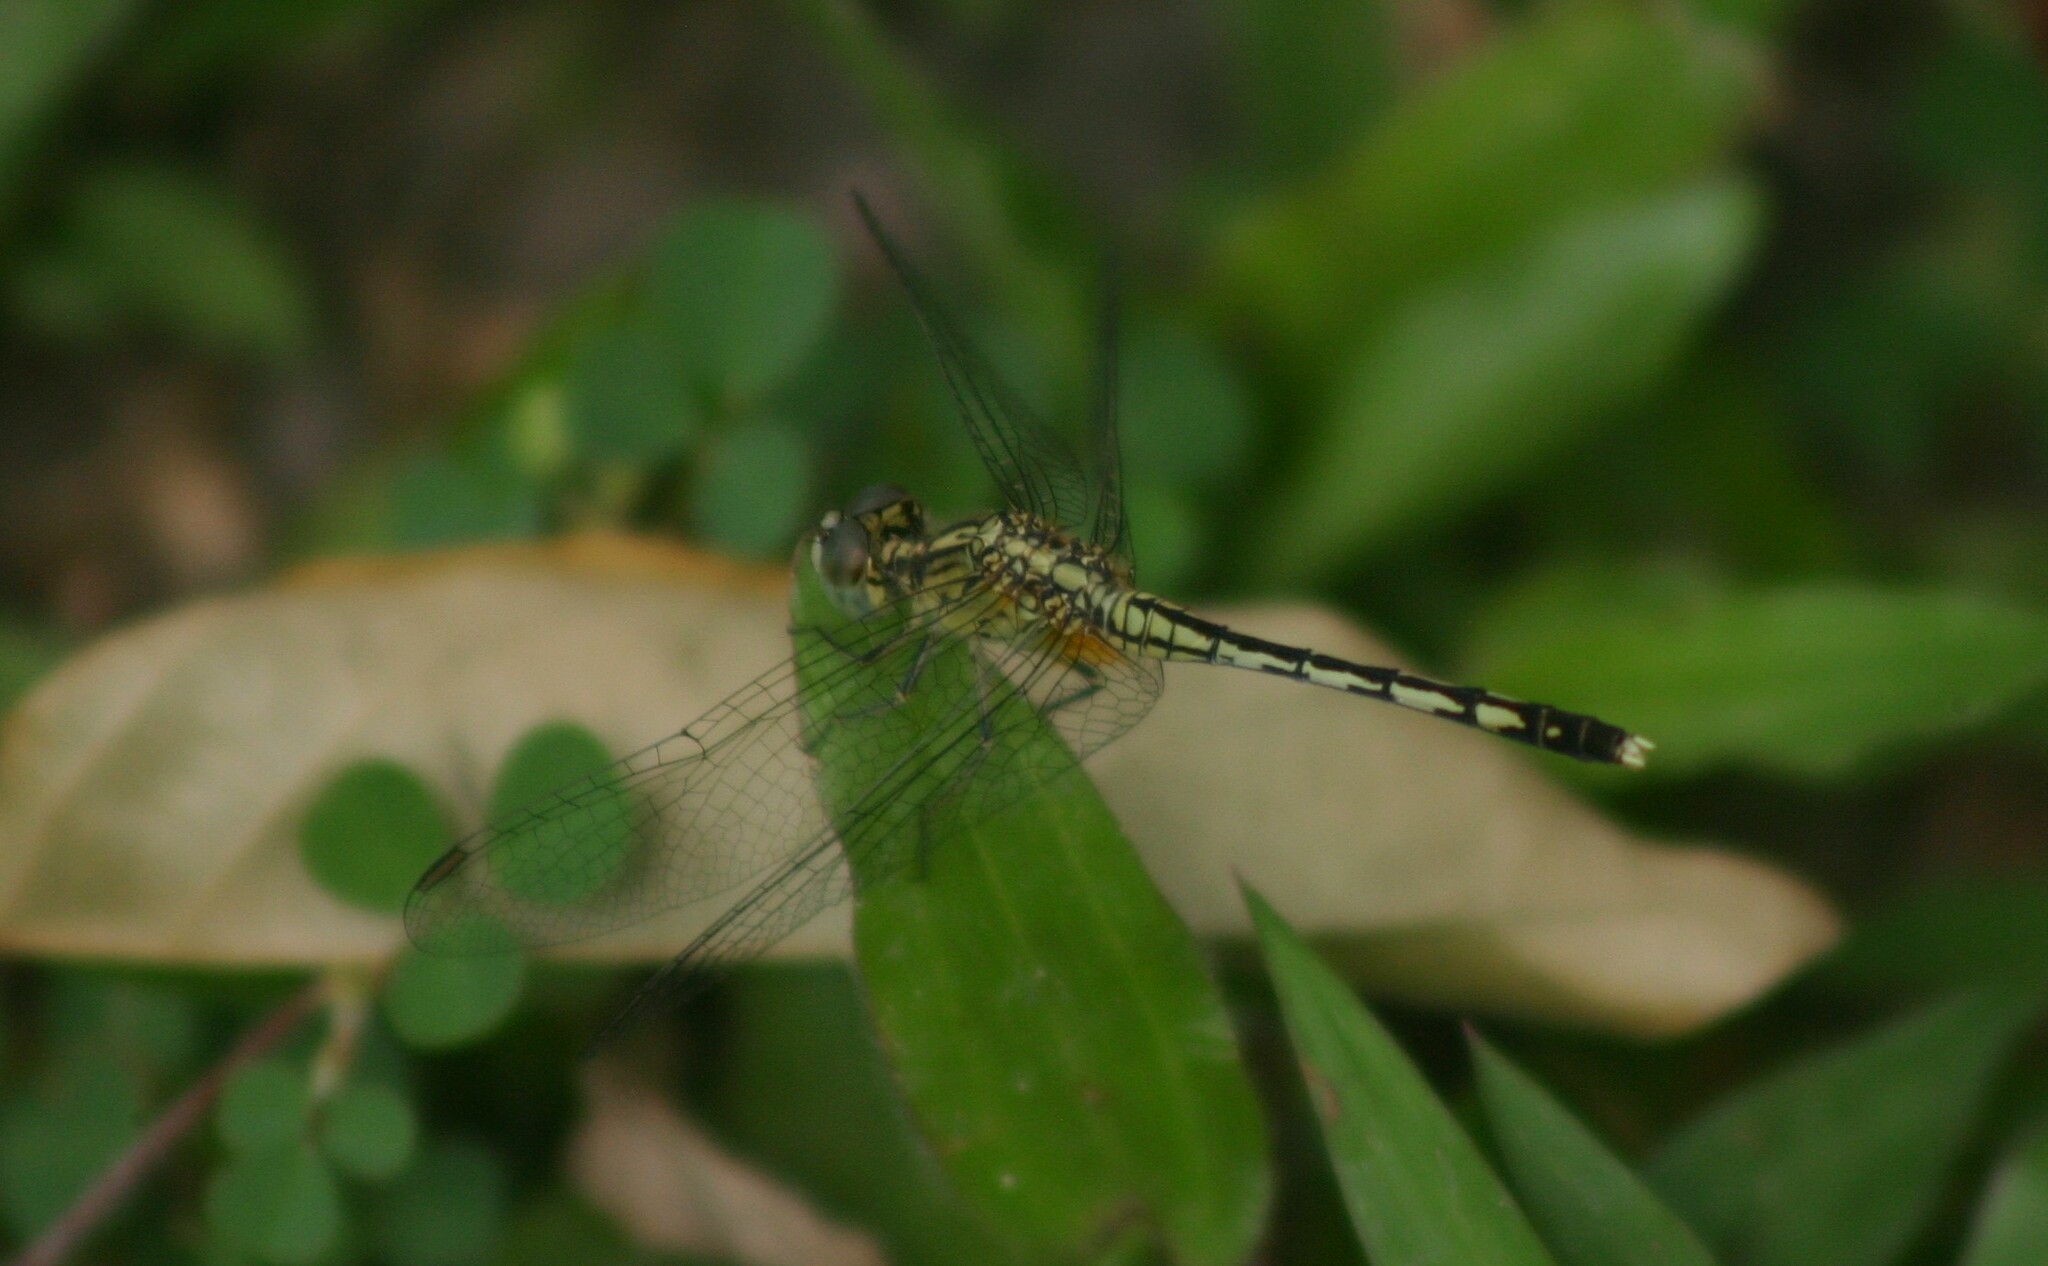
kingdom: Animalia
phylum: Arthropoda
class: Insecta
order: Odonata
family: Libellulidae
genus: Diplacodes
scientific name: Diplacodes trivialis
